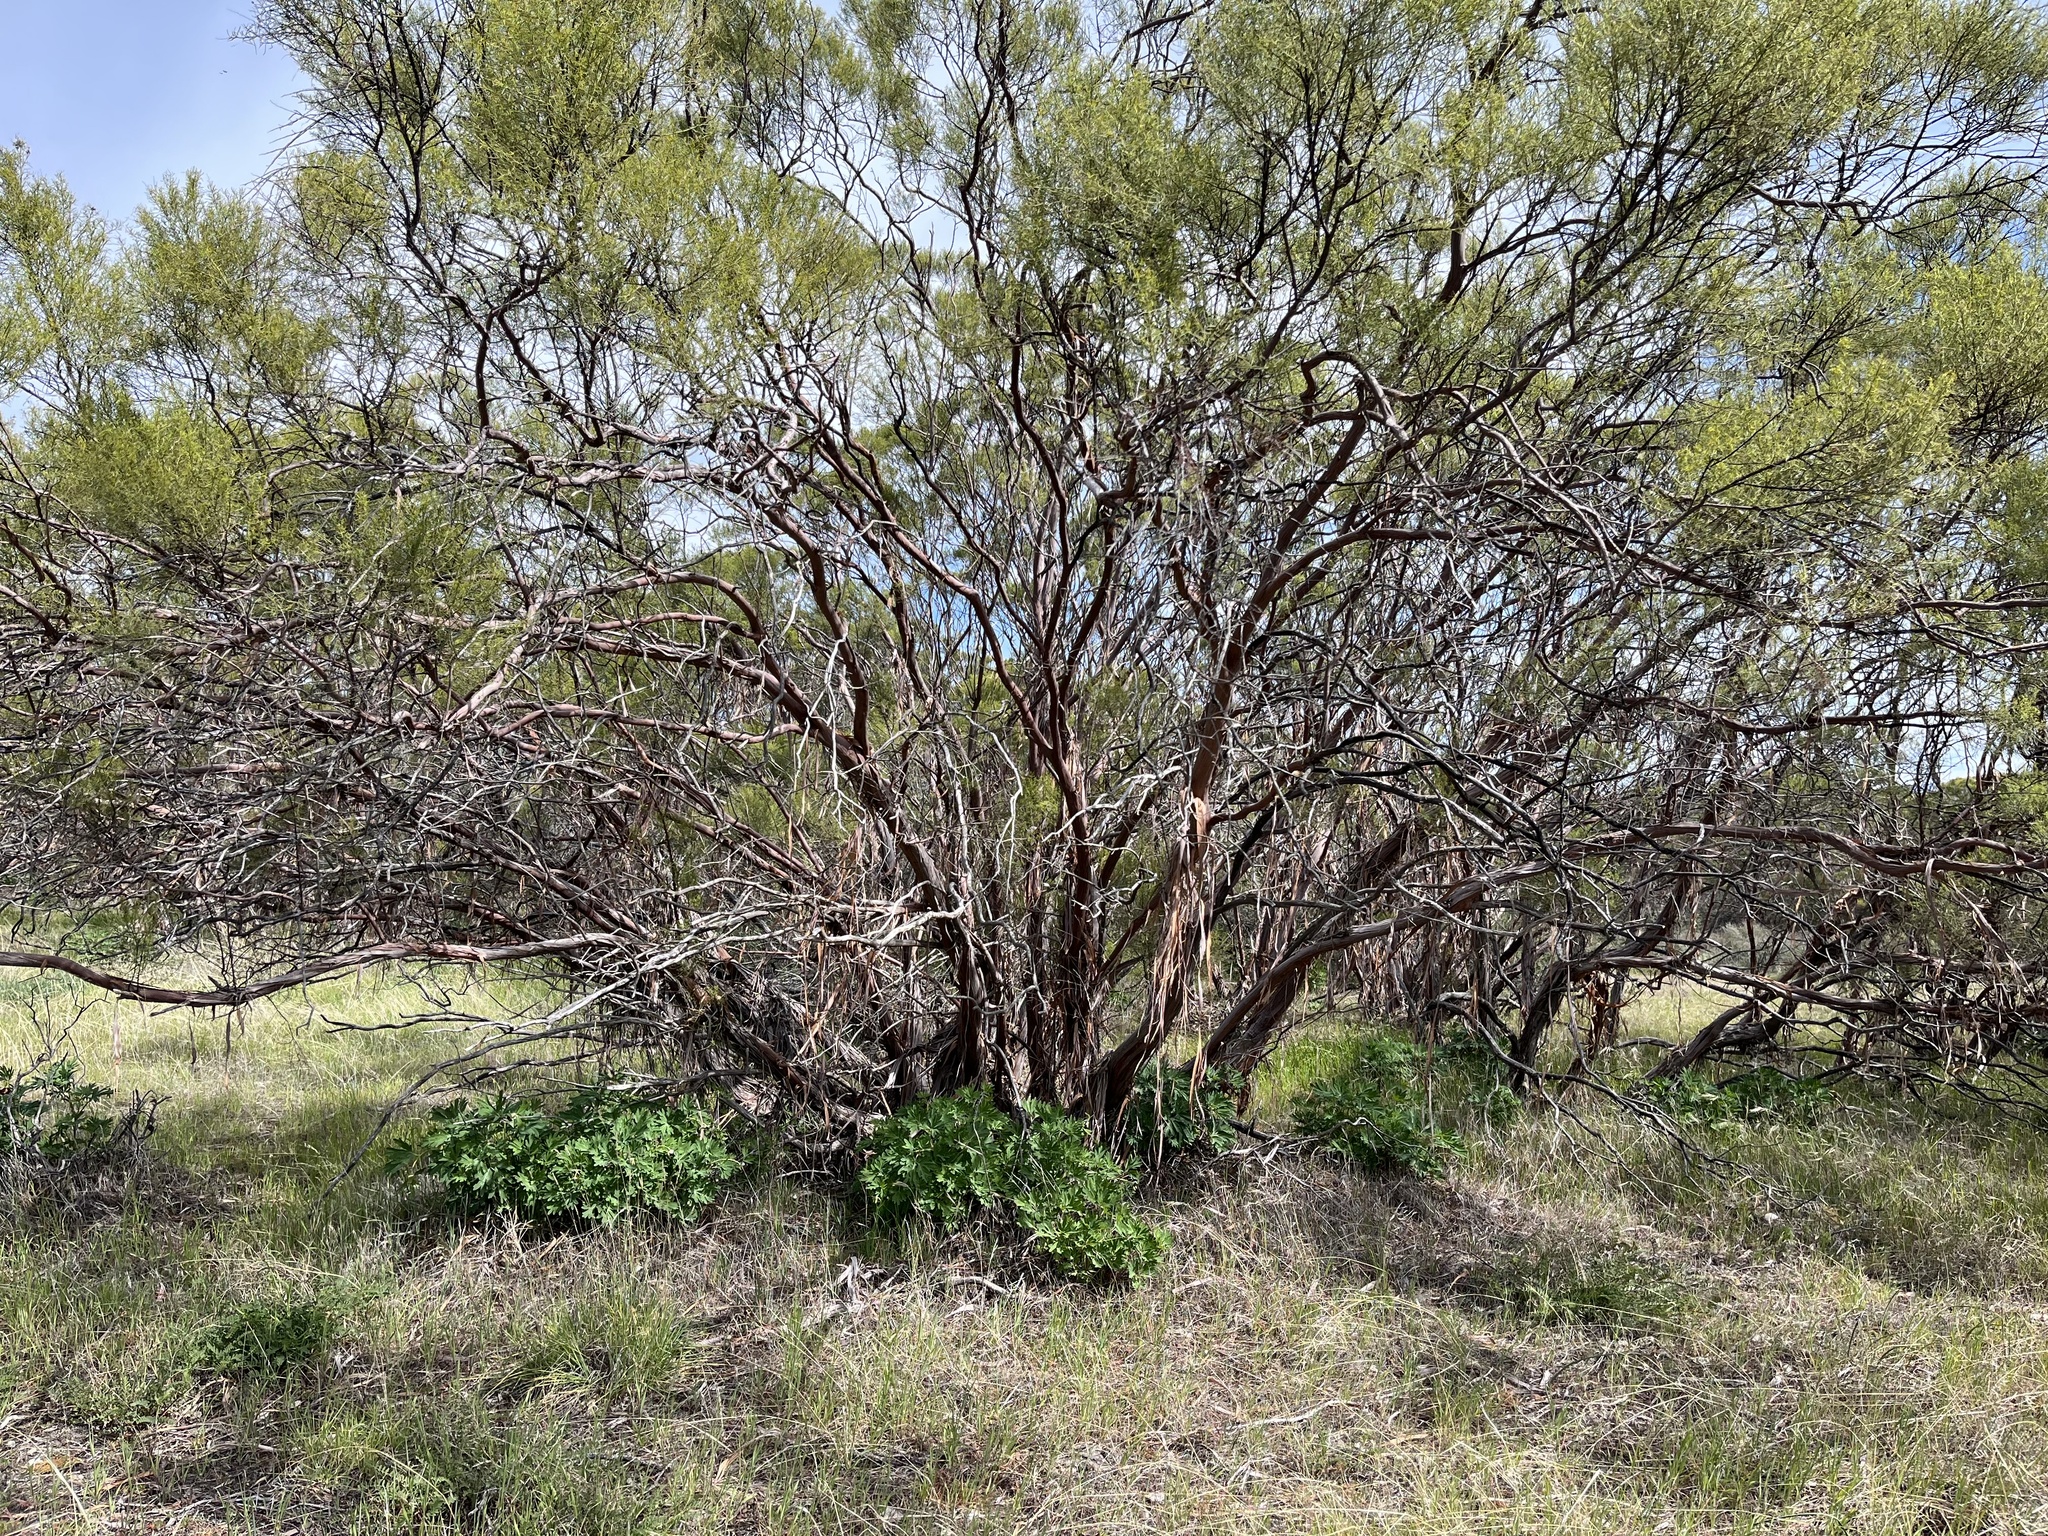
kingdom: Plantae
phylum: Tracheophyta
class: Magnoliopsida
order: Rosales
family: Rosaceae
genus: Adenostoma
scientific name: Adenostoma sparsifolium
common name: Red shank
